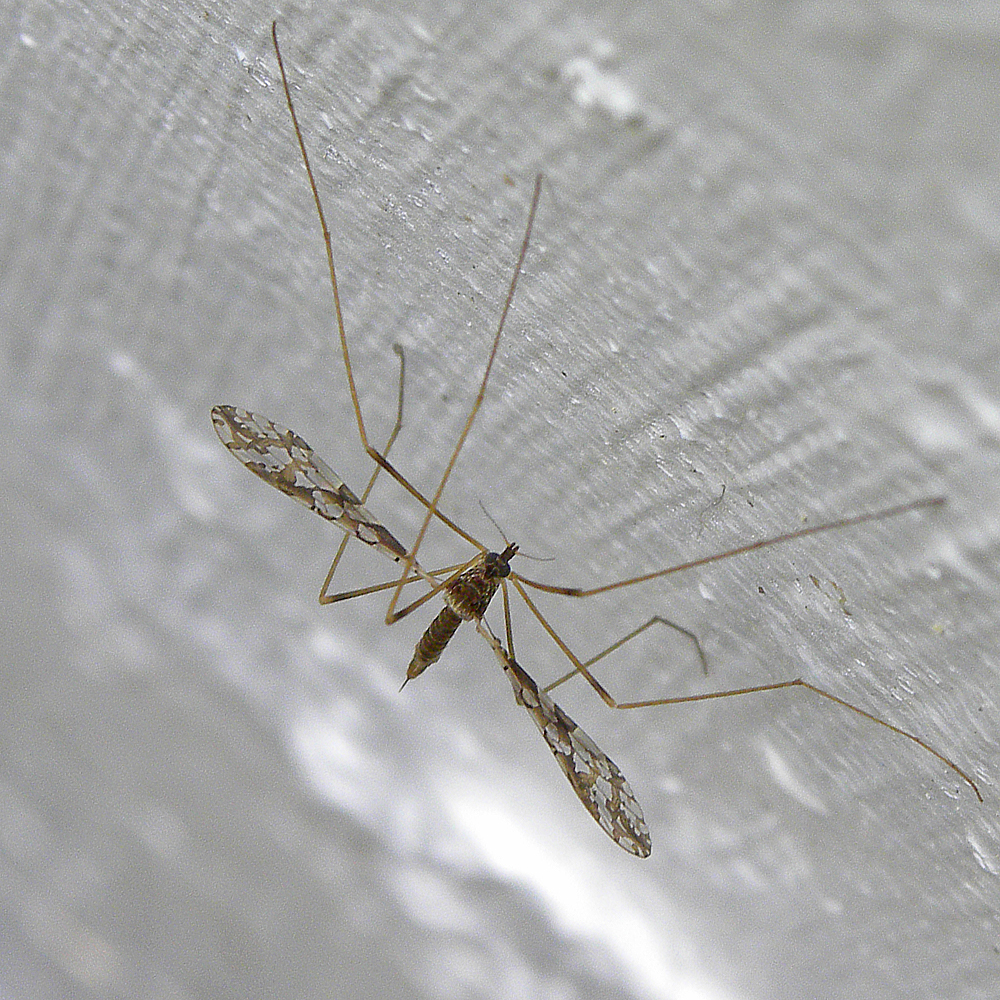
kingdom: Animalia
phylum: Arthropoda
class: Insecta
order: Diptera
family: Limoniidae
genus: Epiphragma
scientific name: Epiphragma solatrix
